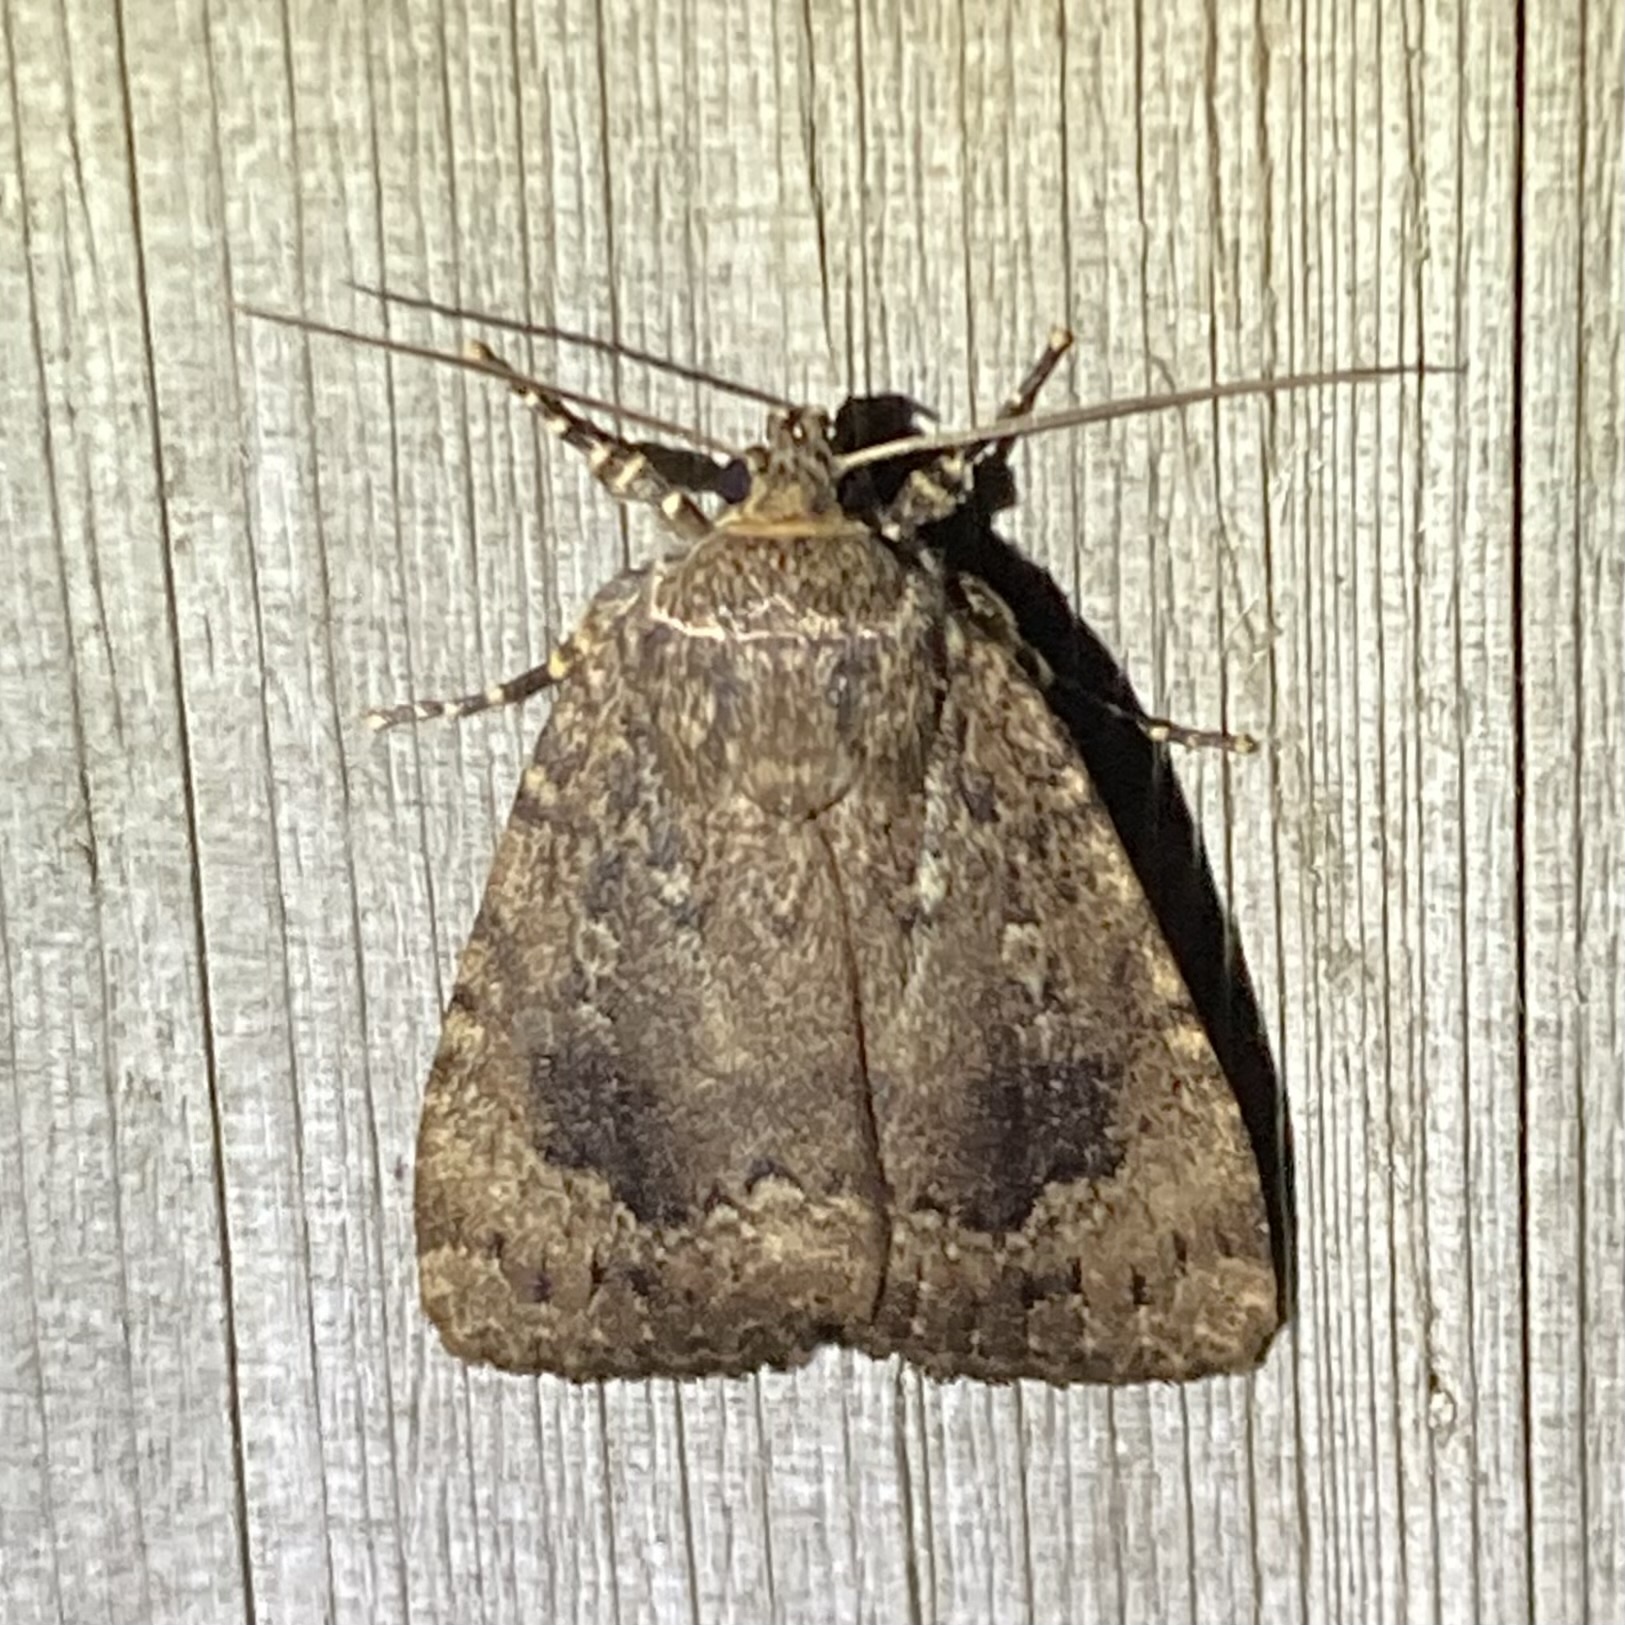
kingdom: Animalia
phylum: Arthropoda
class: Insecta
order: Lepidoptera
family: Noctuidae
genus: Amphipyra
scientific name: Amphipyra pyramidoides
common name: American copper underwing
